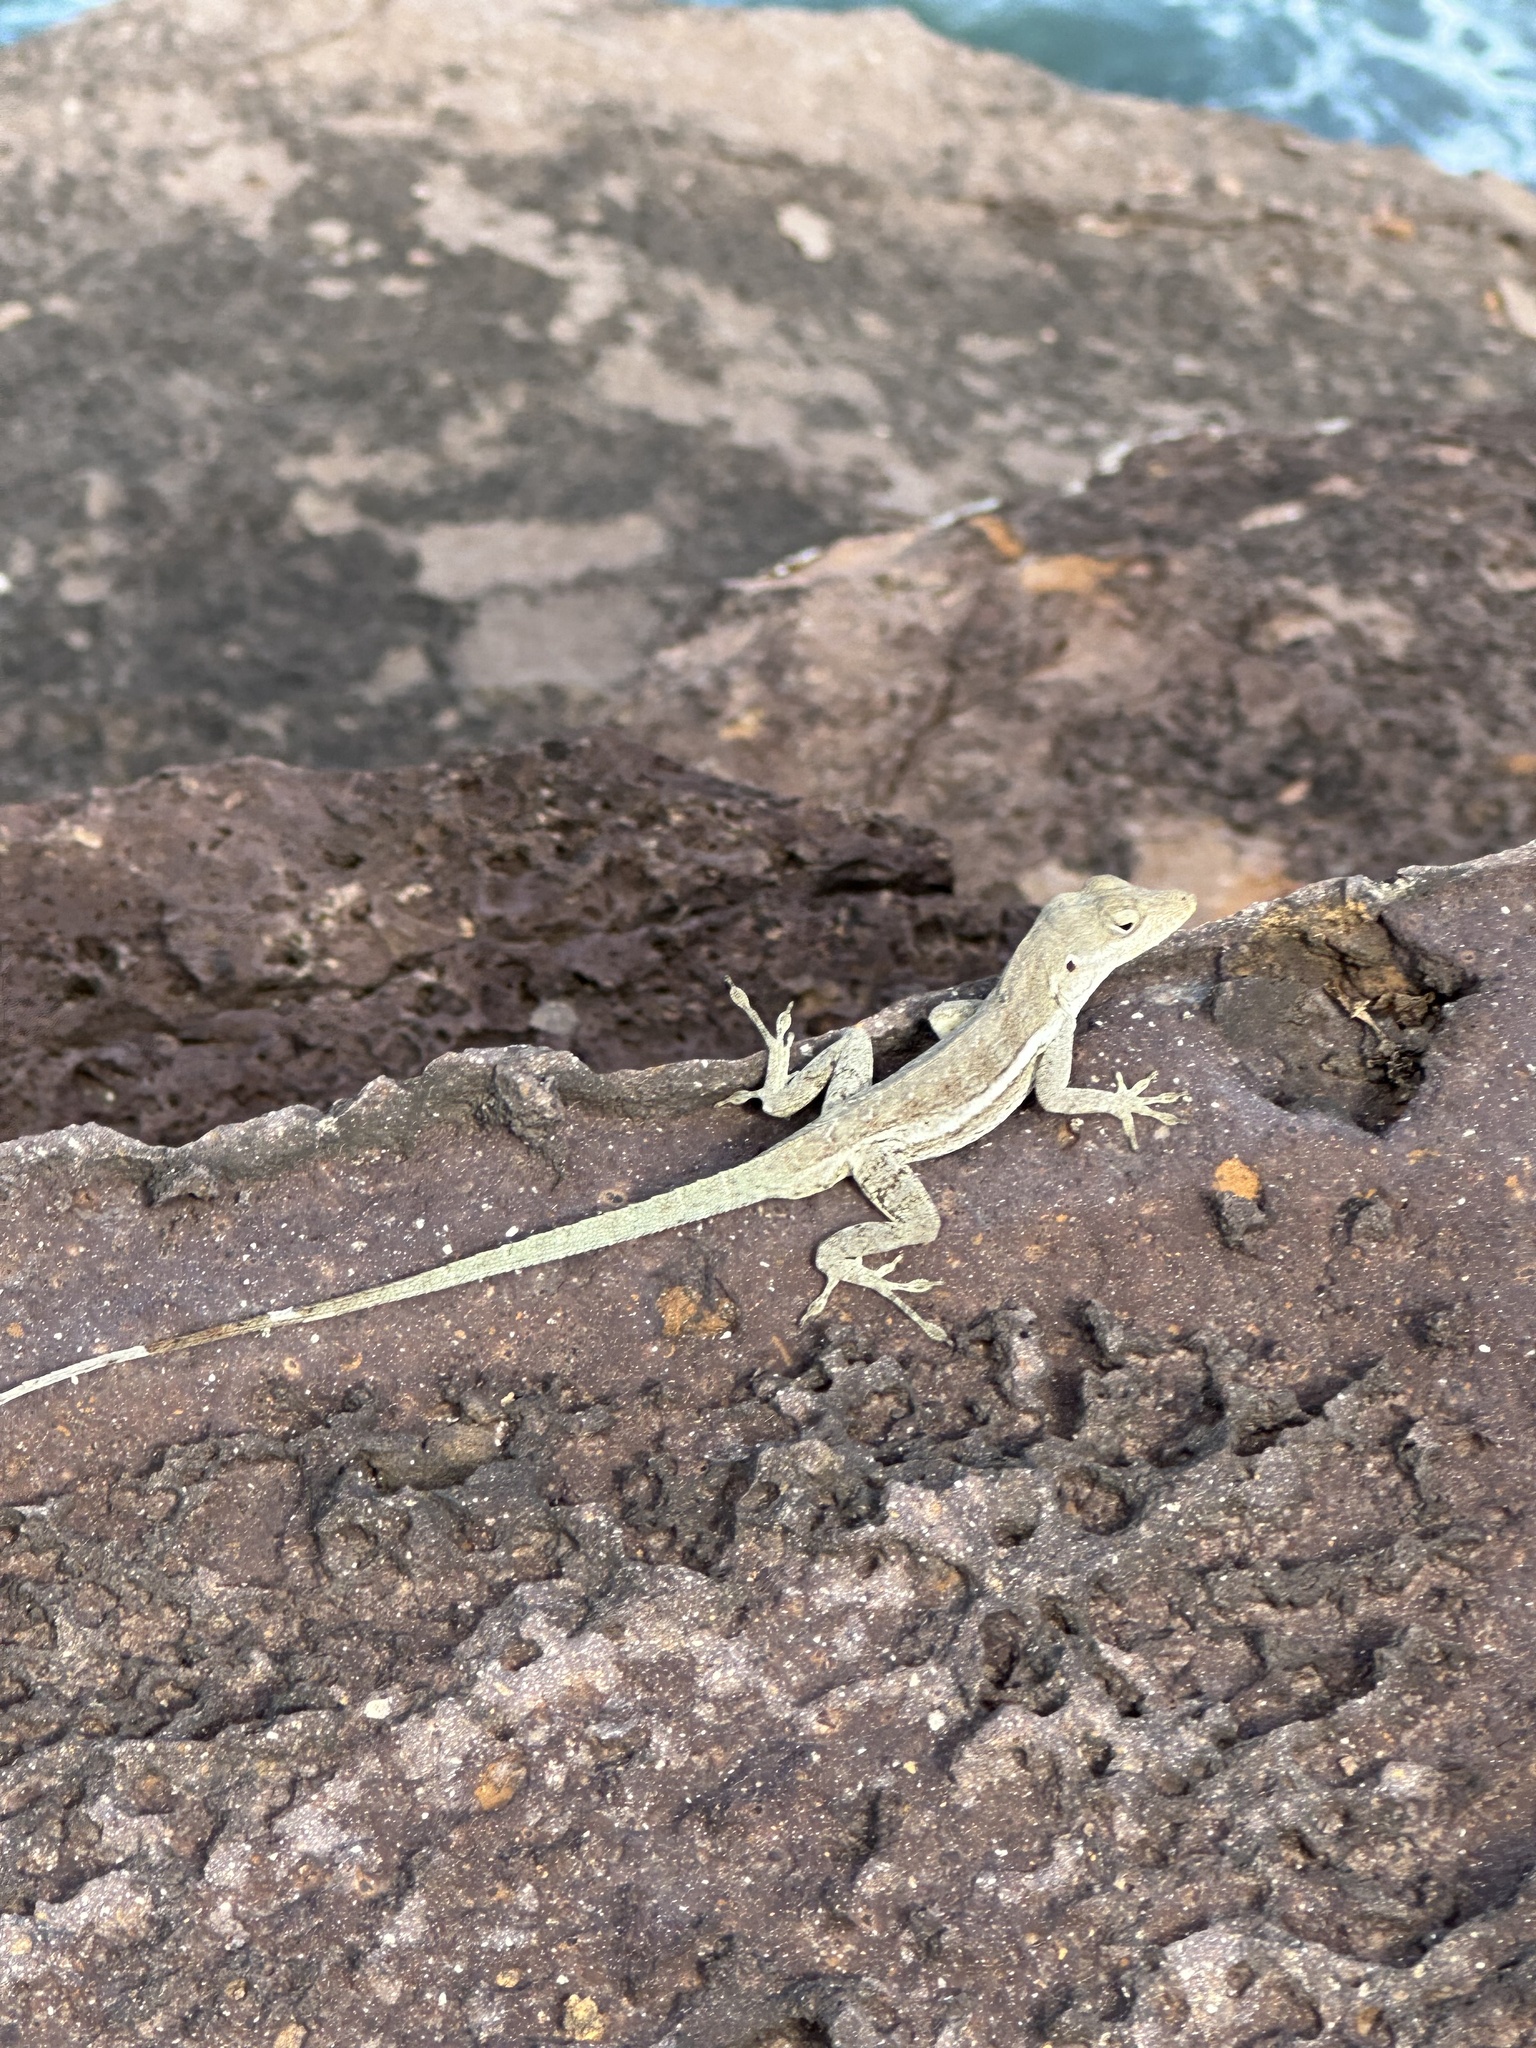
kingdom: Animalia
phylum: Chordata
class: Squamata
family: Dactyloidae
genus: Anolis
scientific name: Anolis gingivinus
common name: Anguilla anole
